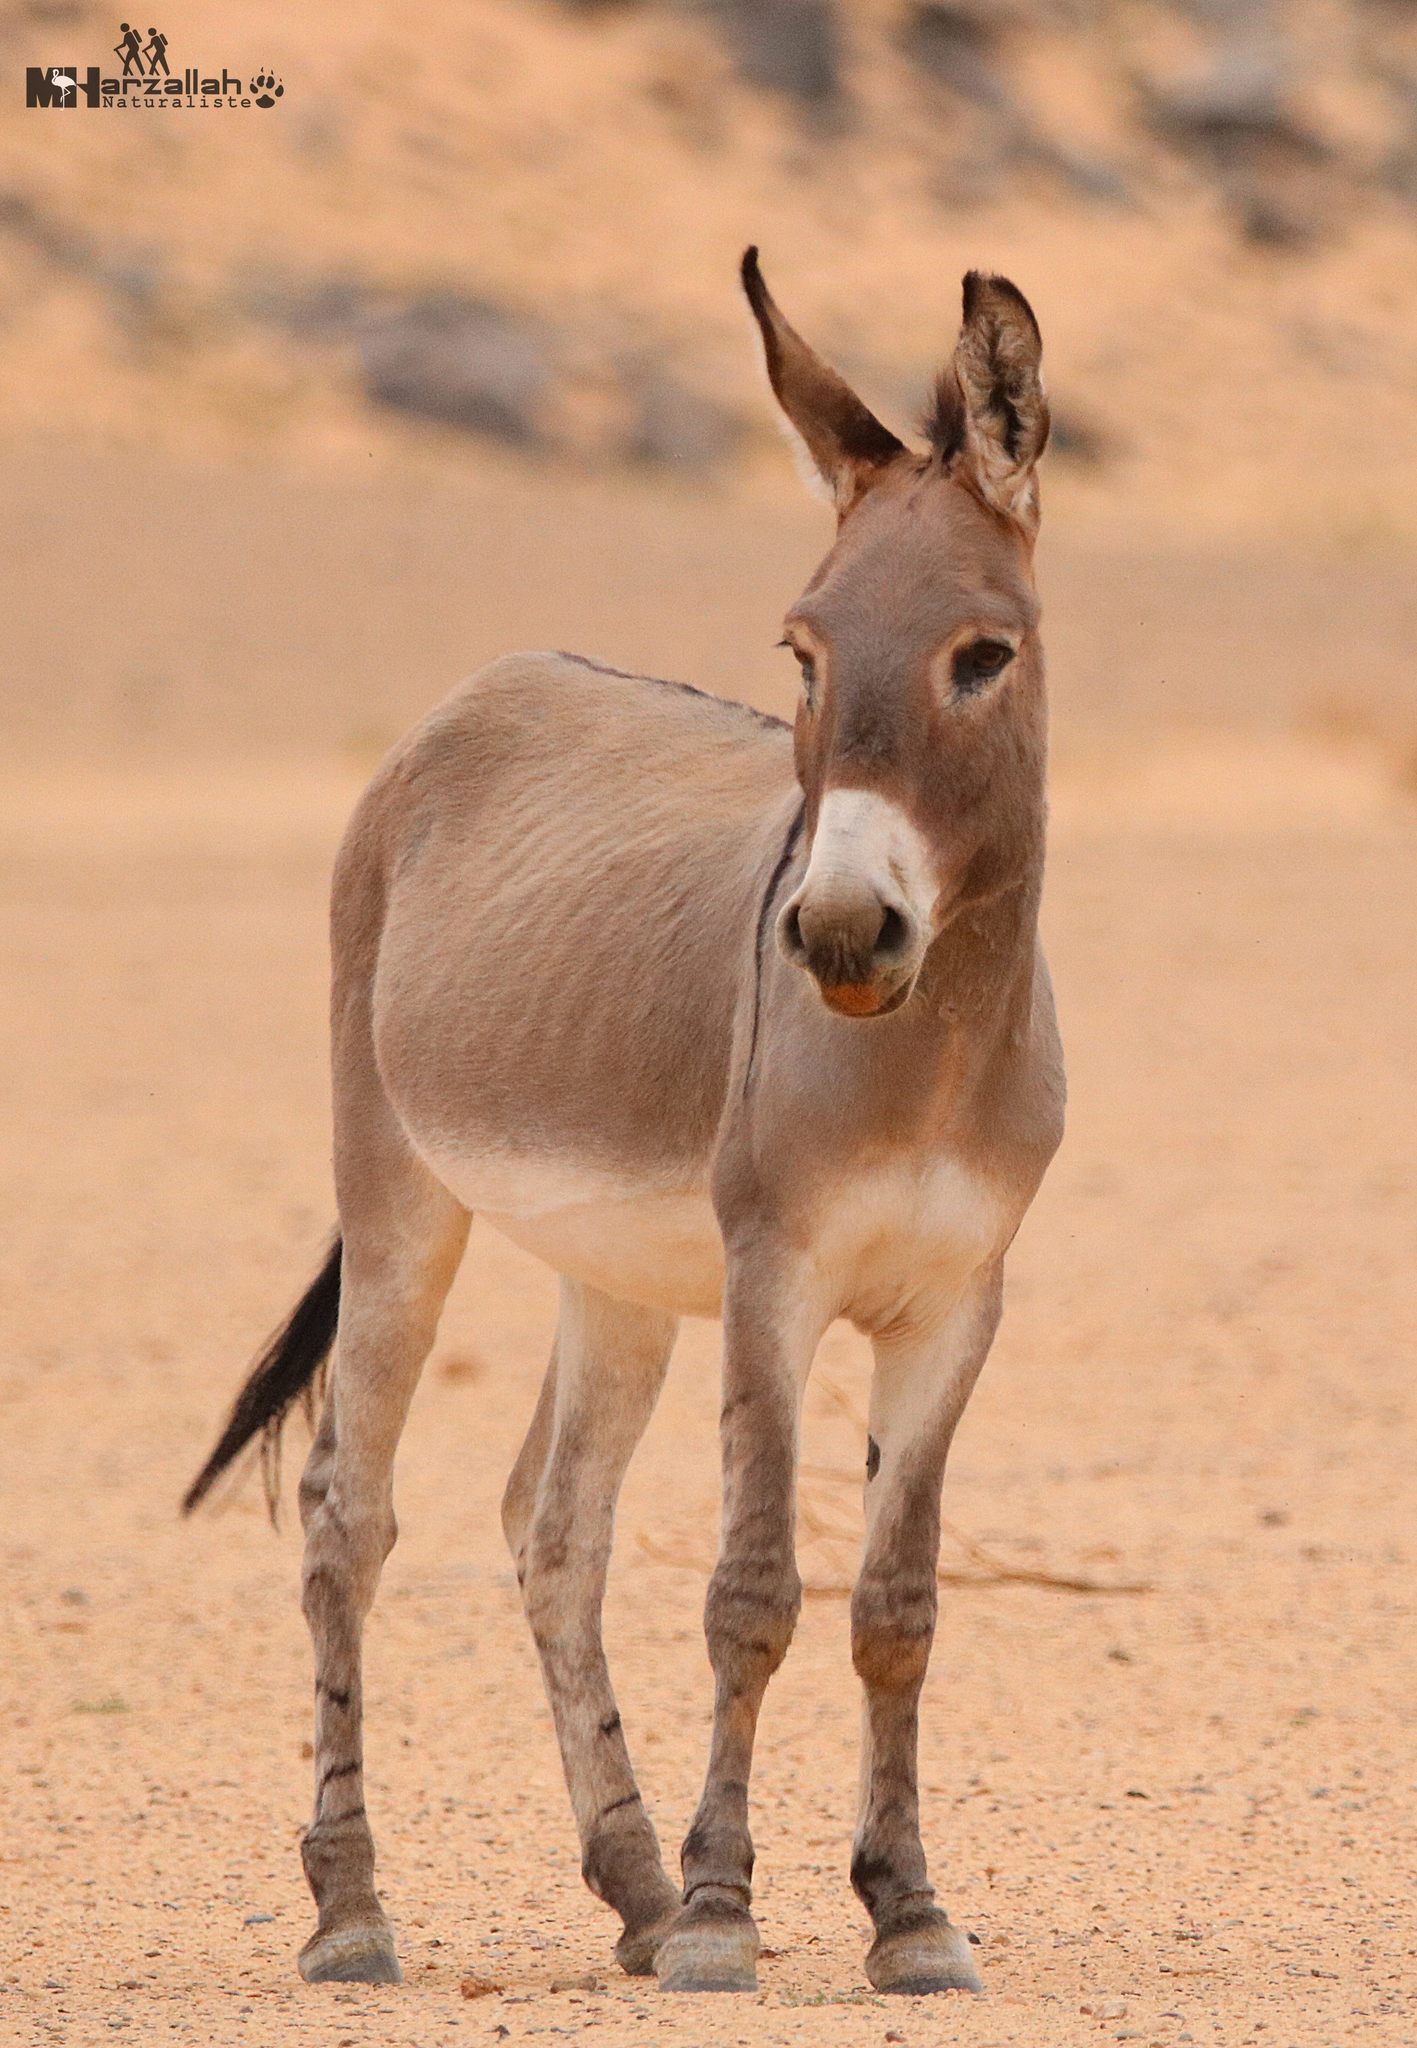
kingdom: Animalia
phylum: Chordata
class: Mammalia
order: Perissodactyla
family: Equidae
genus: Equus
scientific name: Equus asinus
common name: Ass
